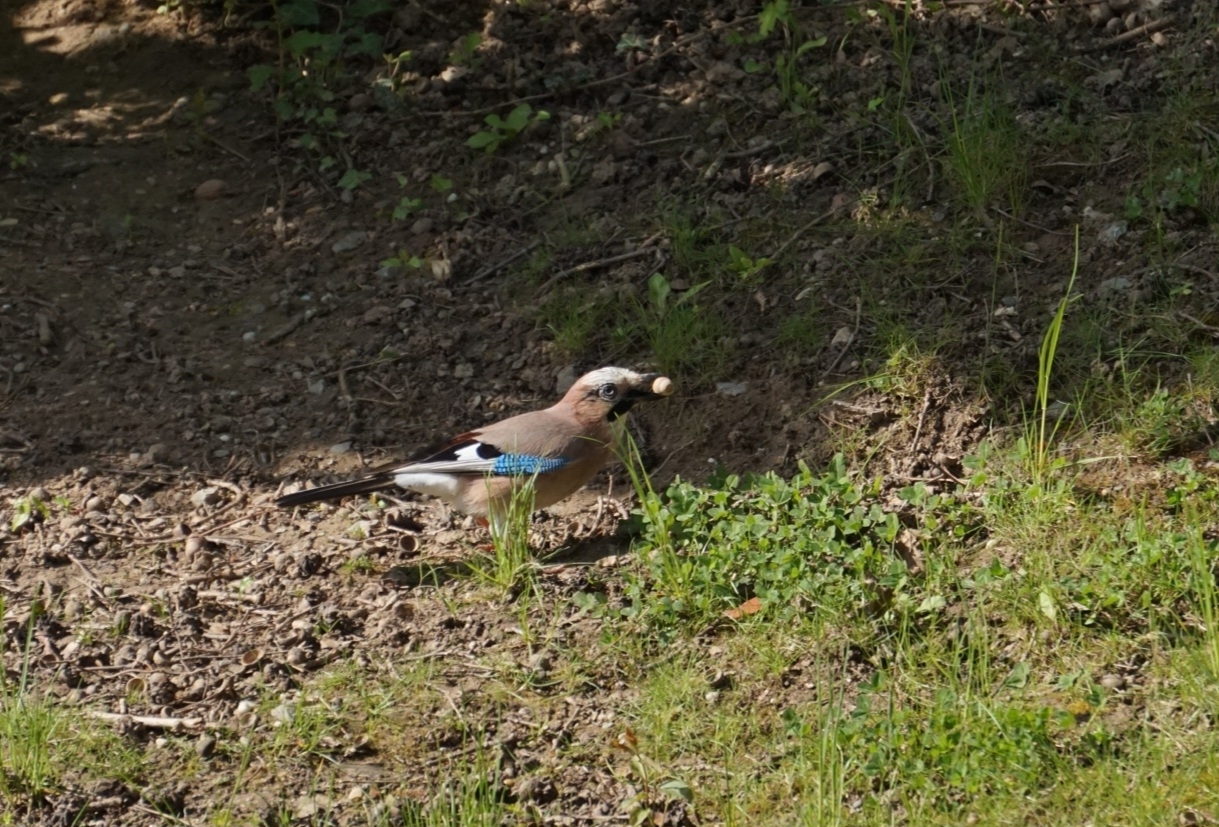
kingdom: Animalia
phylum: Chordata
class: Aves
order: Passeriformes
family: Corvidae
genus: Garrulus
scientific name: Garrulus glandarius
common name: Eurasian jay
